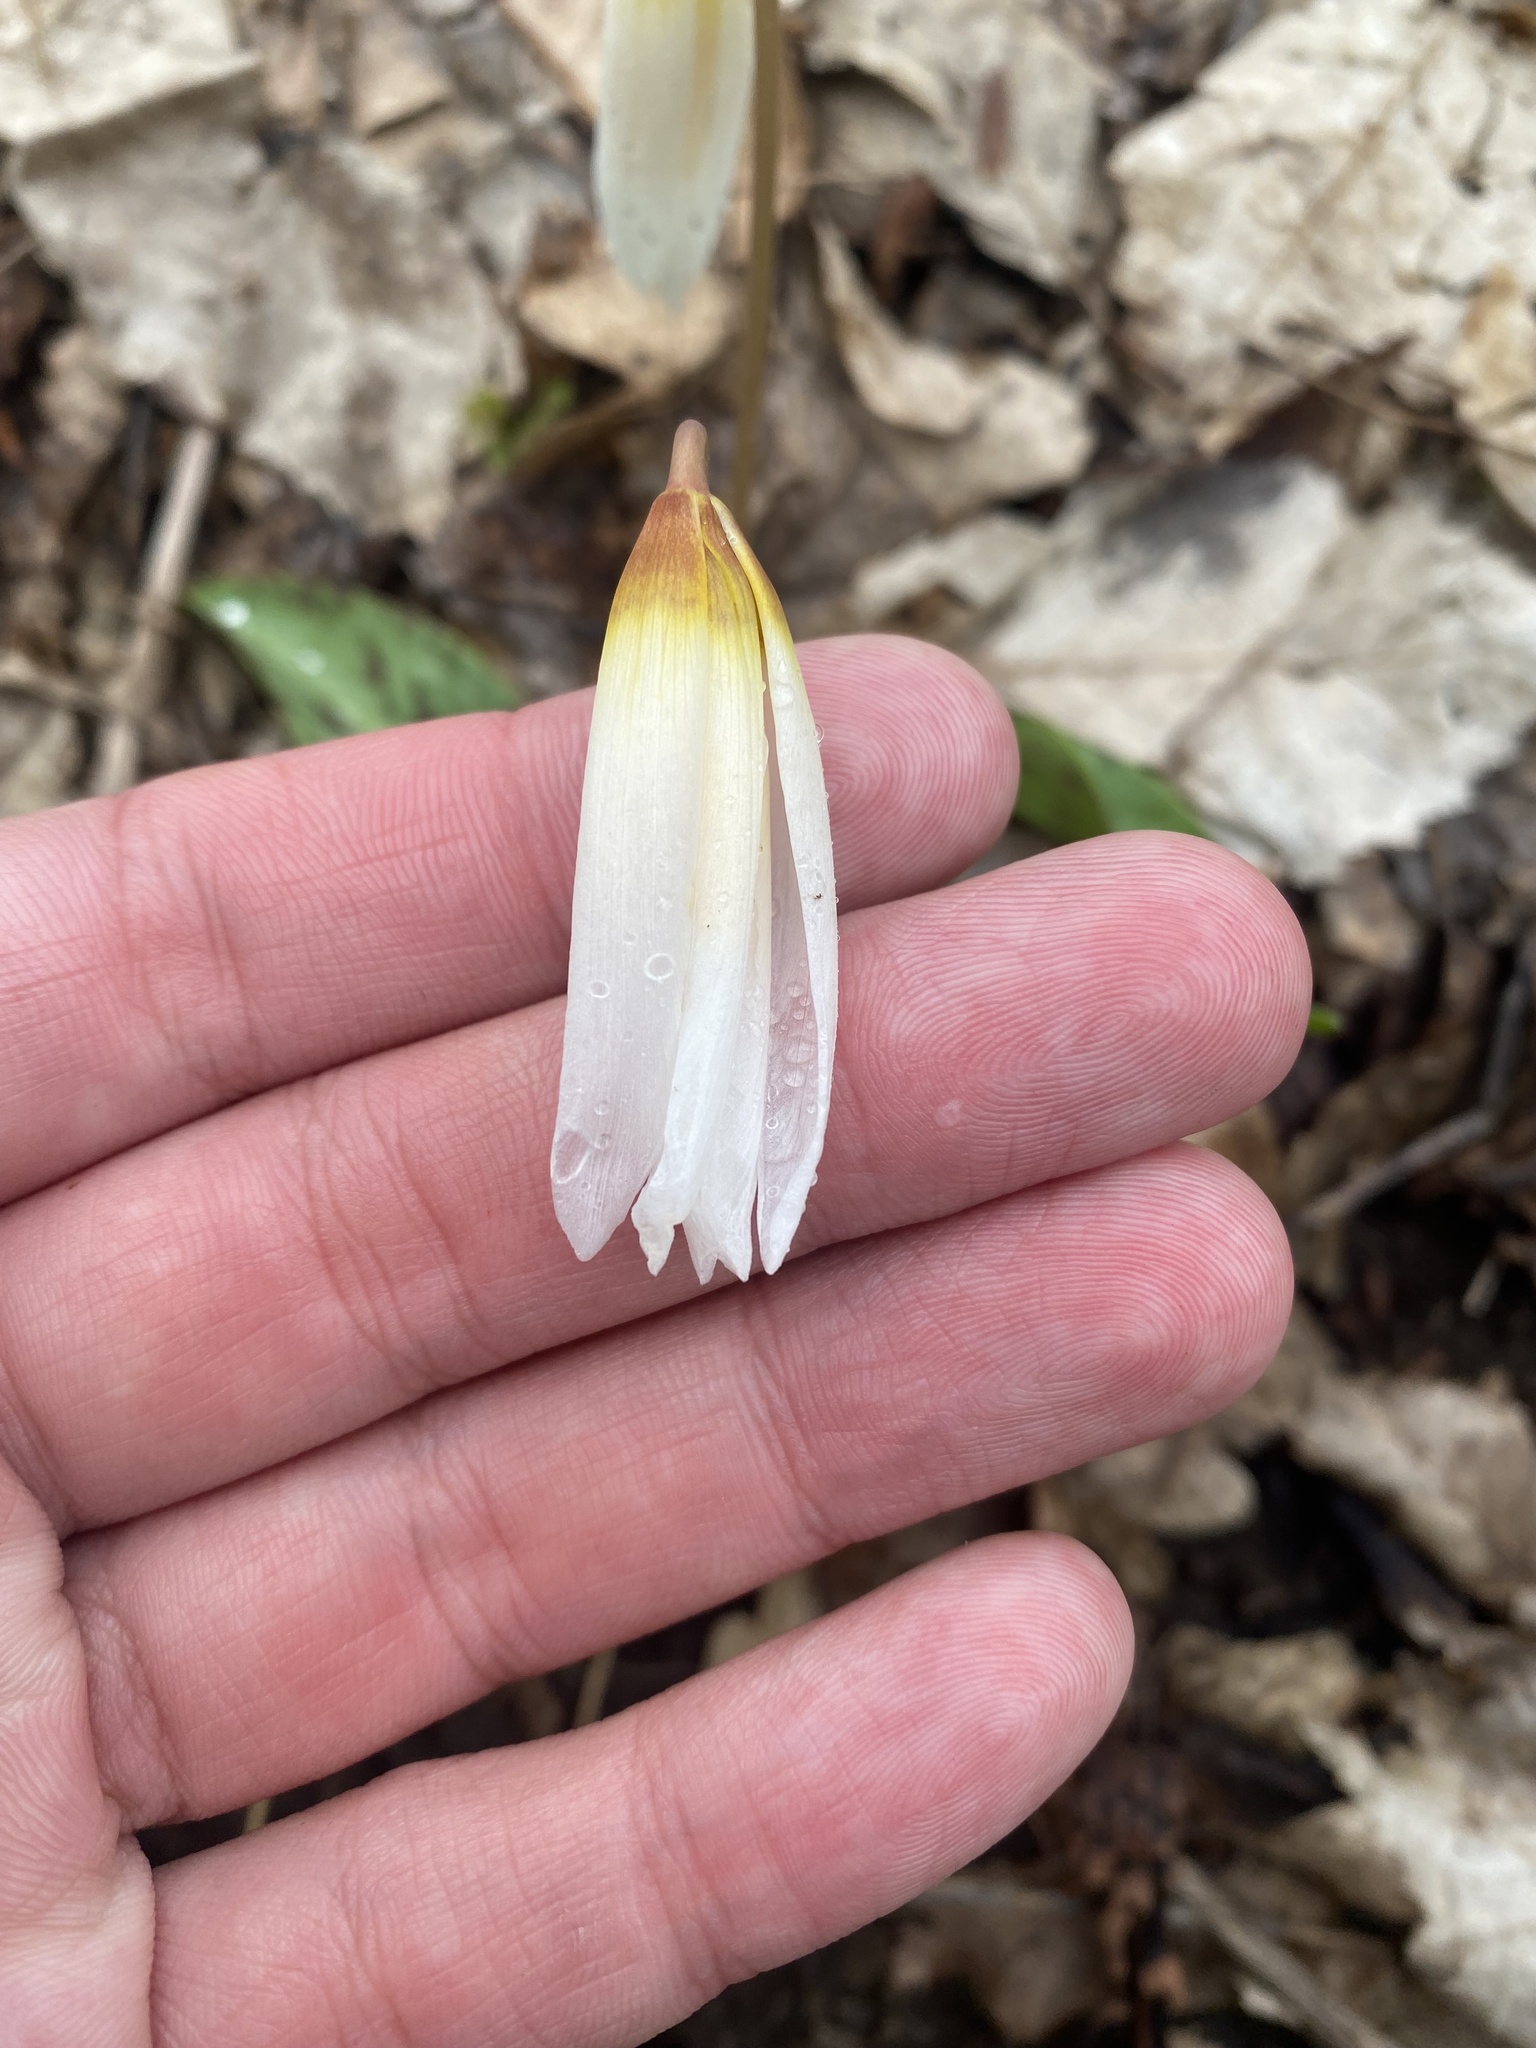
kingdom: Plantae
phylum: Tracheophyta
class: Liliopsida
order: Liliales
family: Liliaceae
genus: Erythronium
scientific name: Erythronium caucasicum
